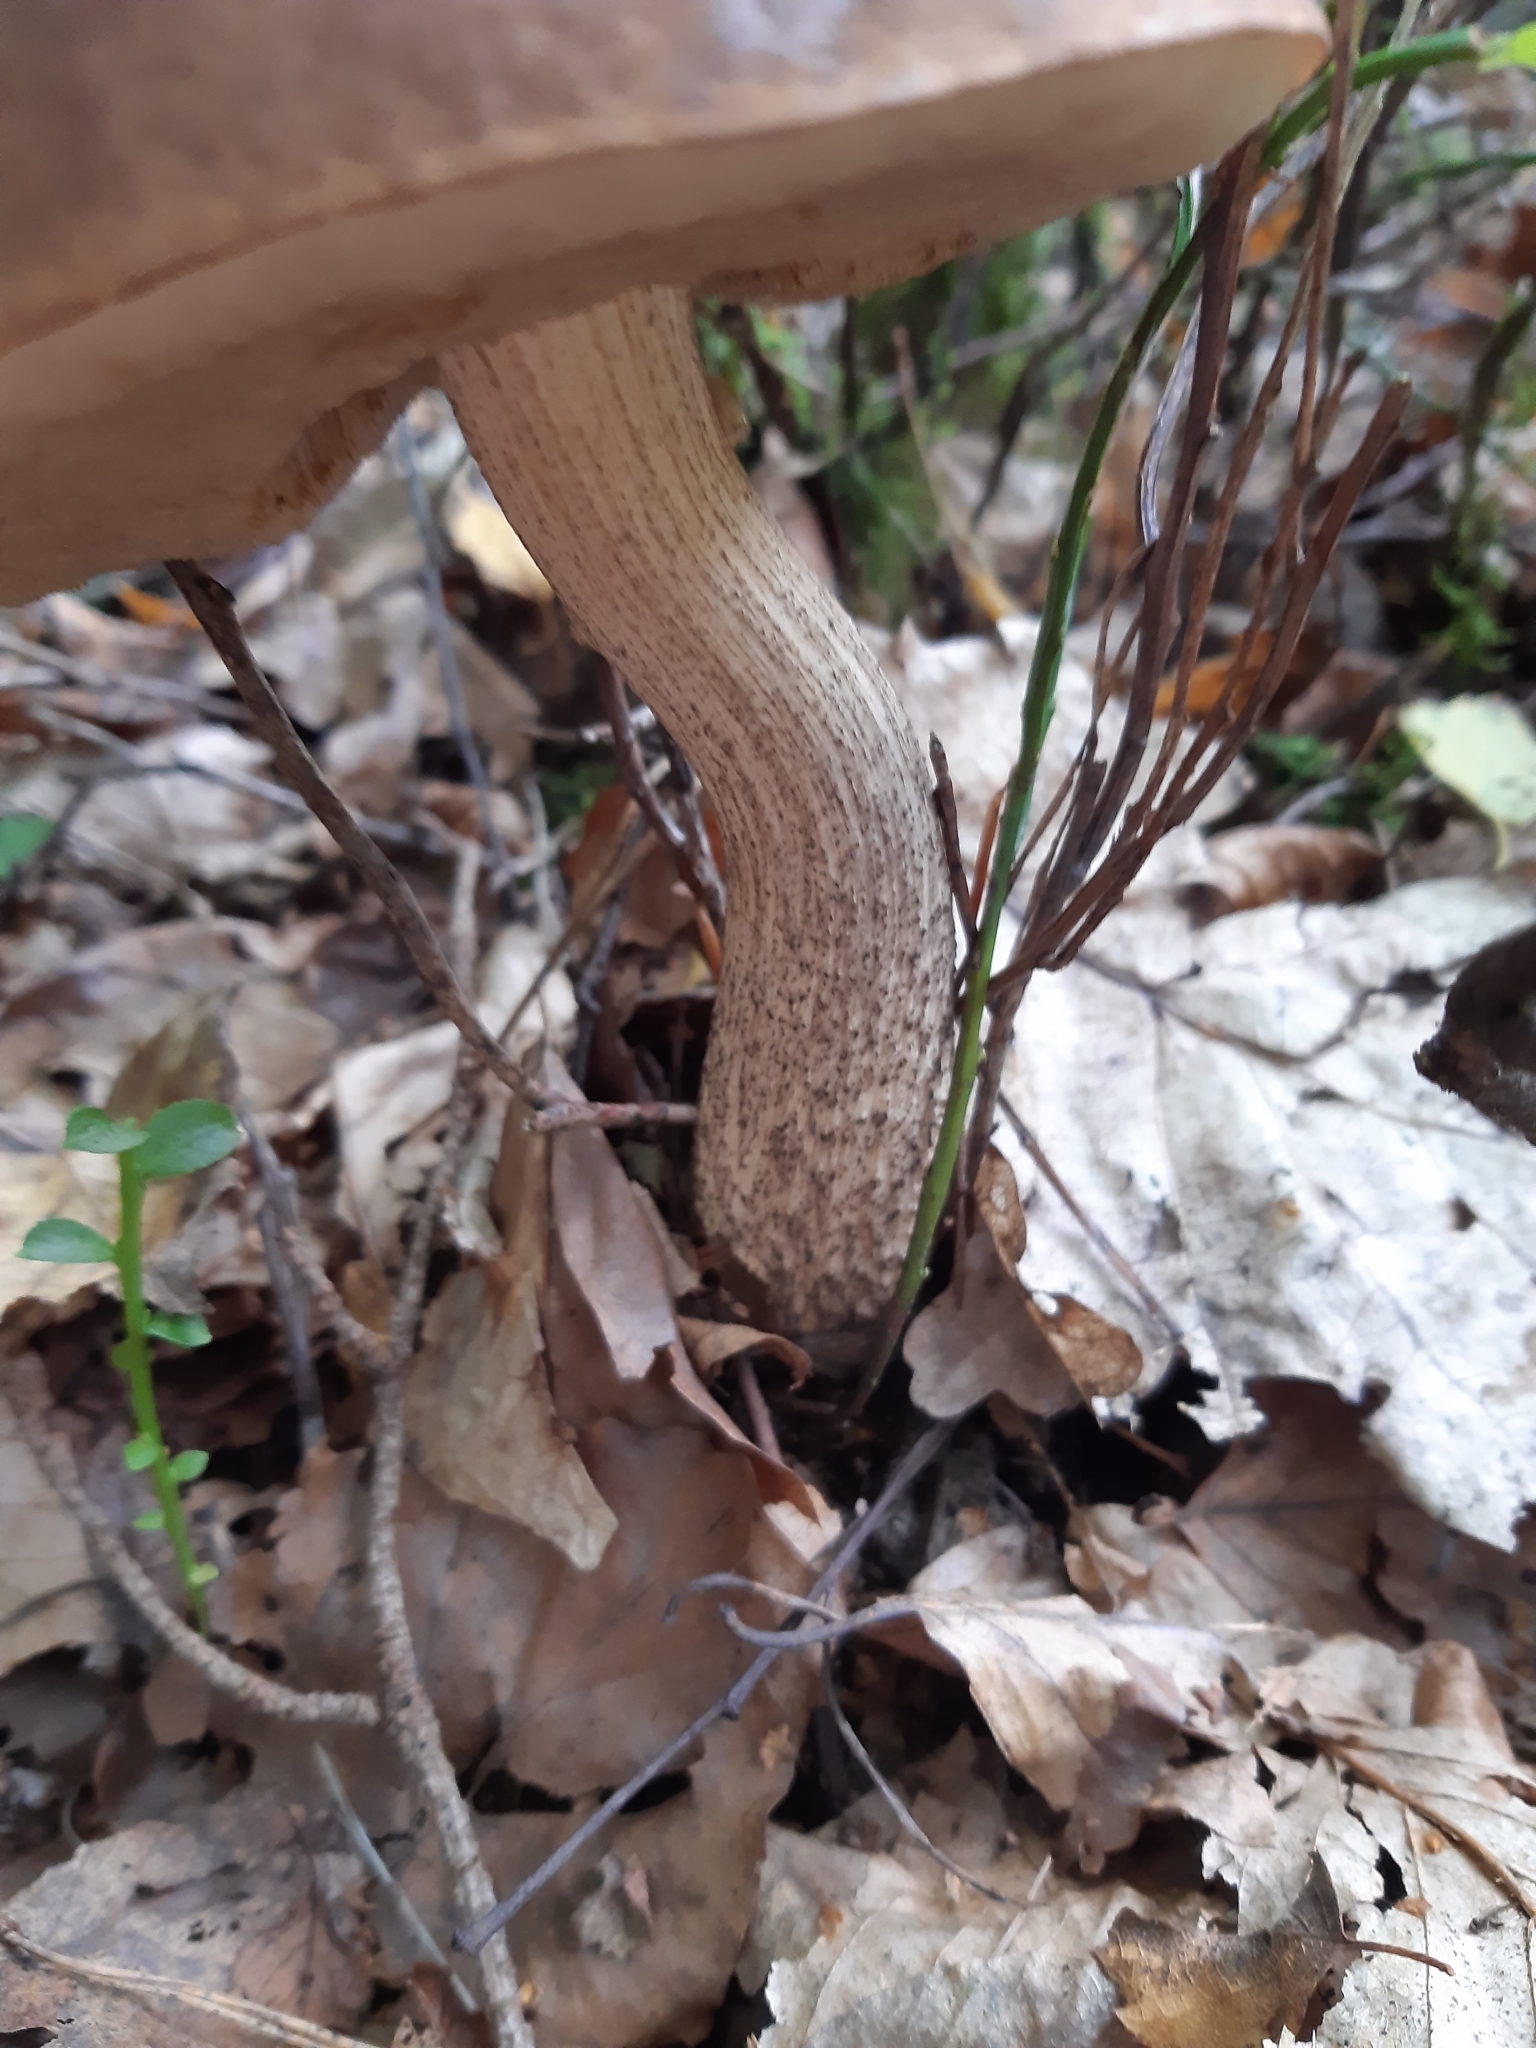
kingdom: Fungi
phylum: Basidiomycota
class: Agaricomycetes
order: Boletales
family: Boletaceae
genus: Leccinum
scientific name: Leccinum scabrum
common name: Blushing bolete
